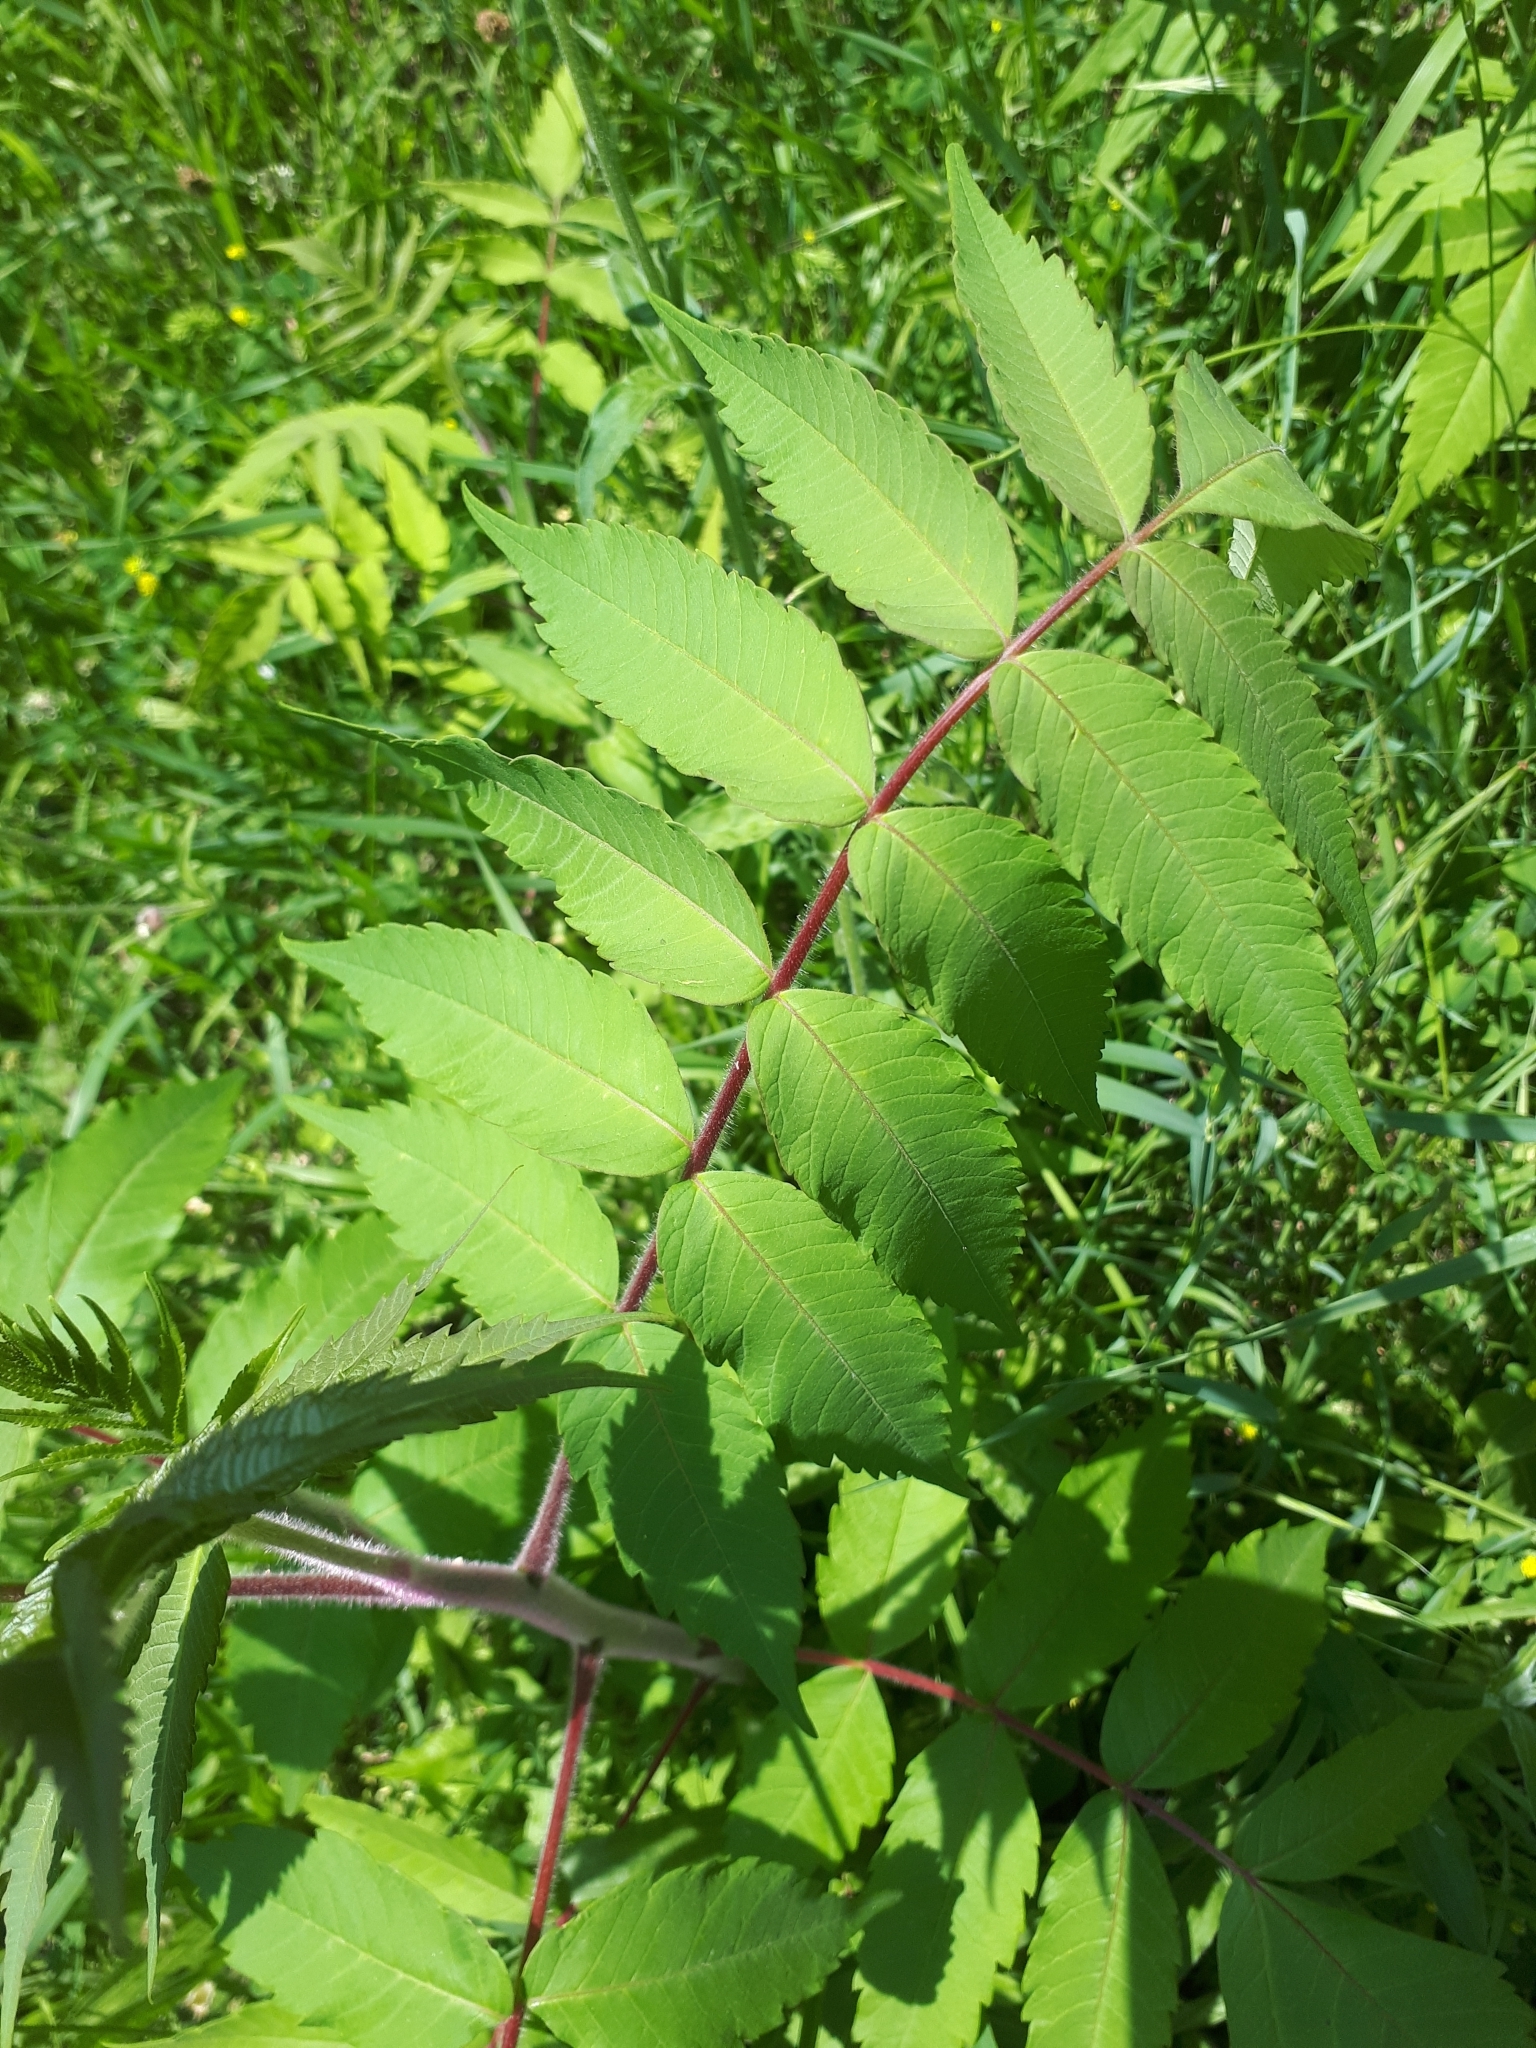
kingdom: Plantae
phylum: Tracheophyta
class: Magnoliopsida
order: Sapindales
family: Anacardiaceae
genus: Rhus
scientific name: Rhus typhina
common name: Staghorn sumac
